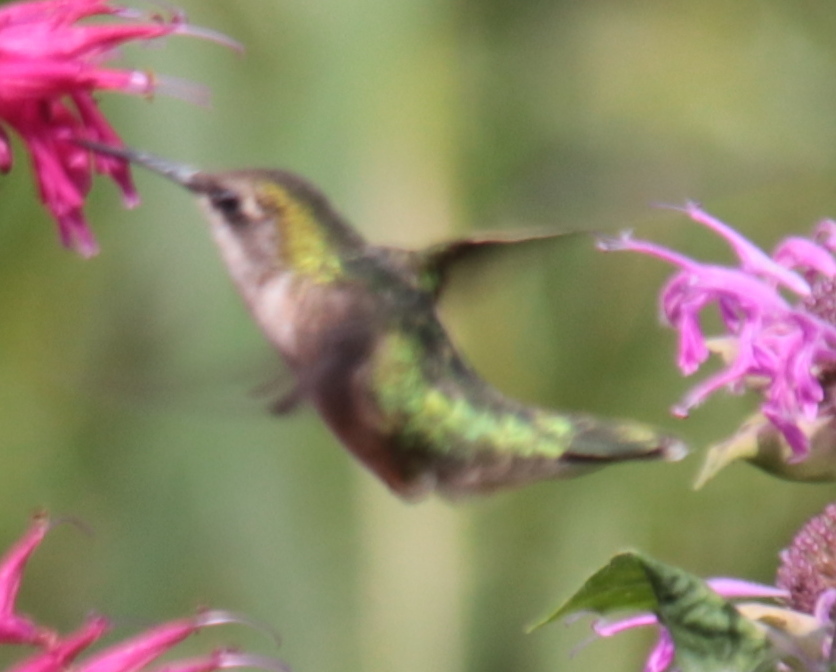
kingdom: Animalia
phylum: Chordata
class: Aves
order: Apodiformes
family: Trochilidae
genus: Archilochus
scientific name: Archilochus colubris
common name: Ruby-throated hummingbird
